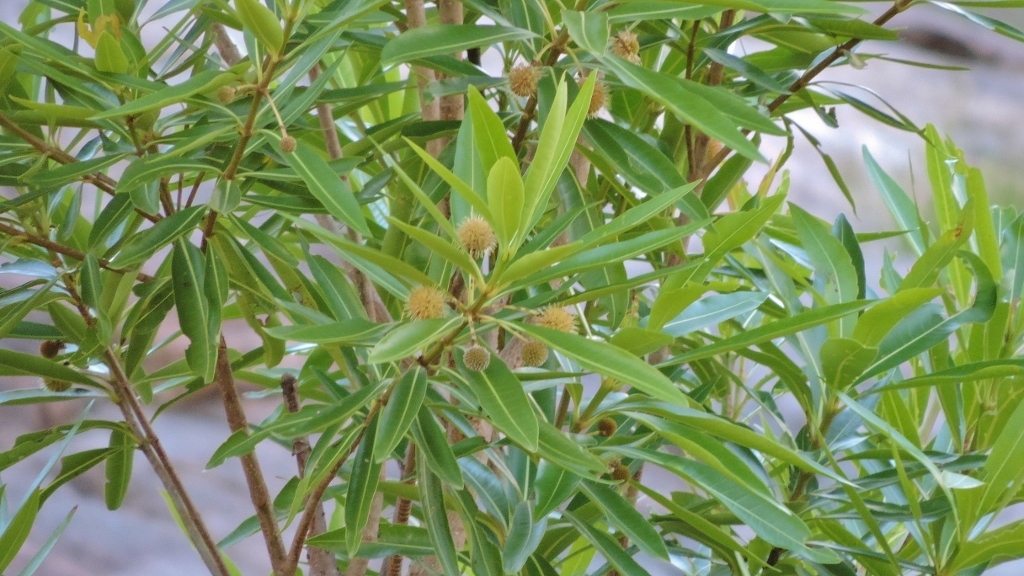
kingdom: Plantae
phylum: Tracheophyta
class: Magnoliopsida
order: Gentianales
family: Rubiaceae
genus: Breonadia
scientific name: Breonadia salicina
